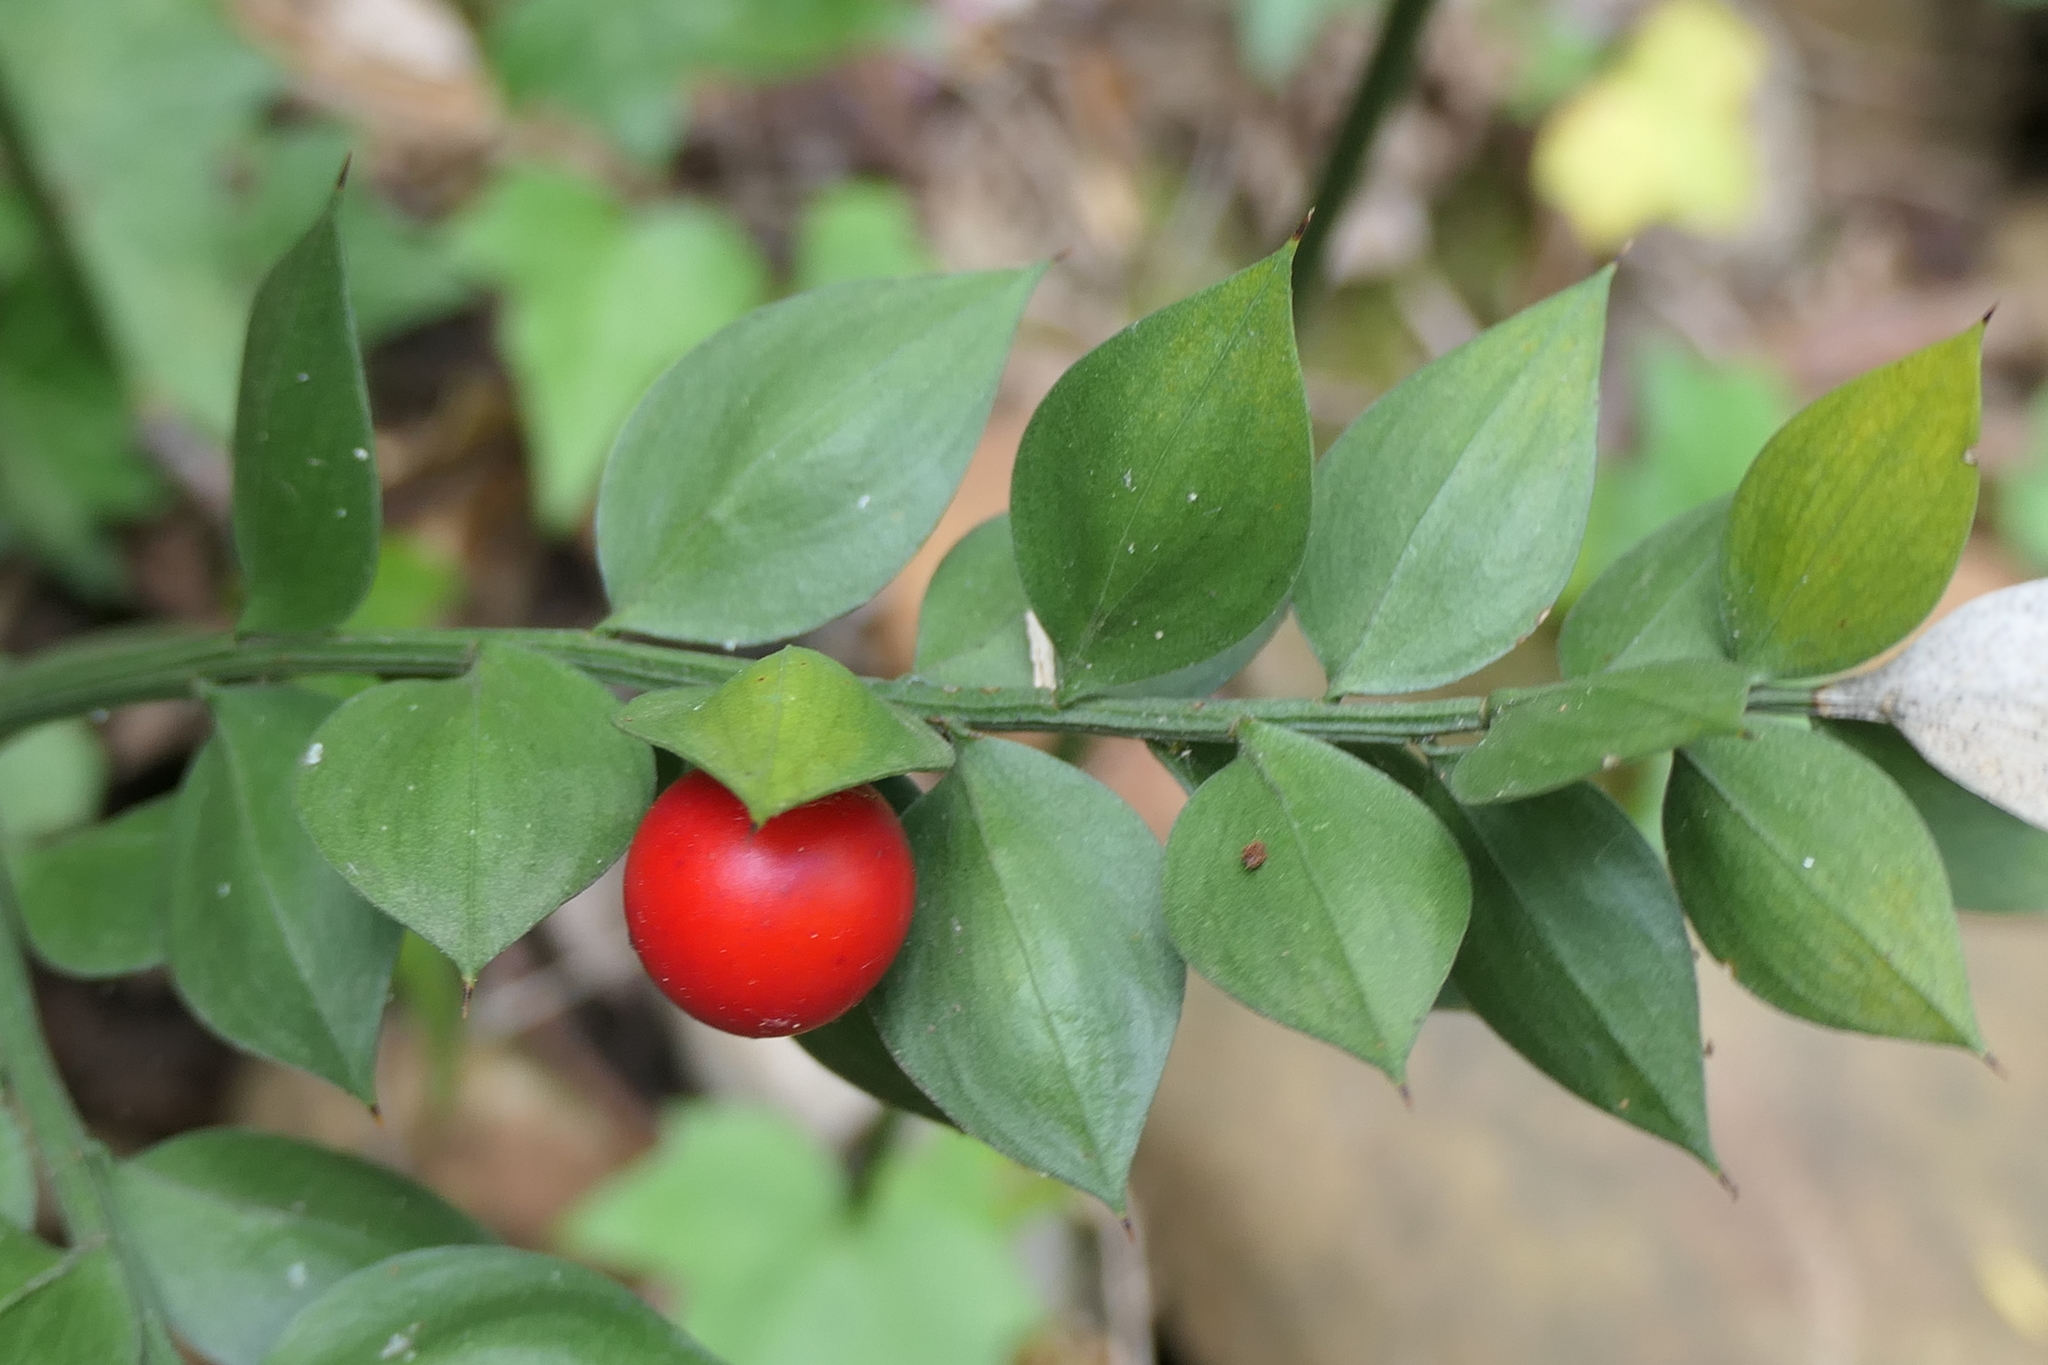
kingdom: Plantae
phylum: Tracheophyta
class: Liliopsida
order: Asparagales
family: Asparagaceae
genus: Ruscus
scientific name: Ruscus aculeatus
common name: Butcher's-broom
